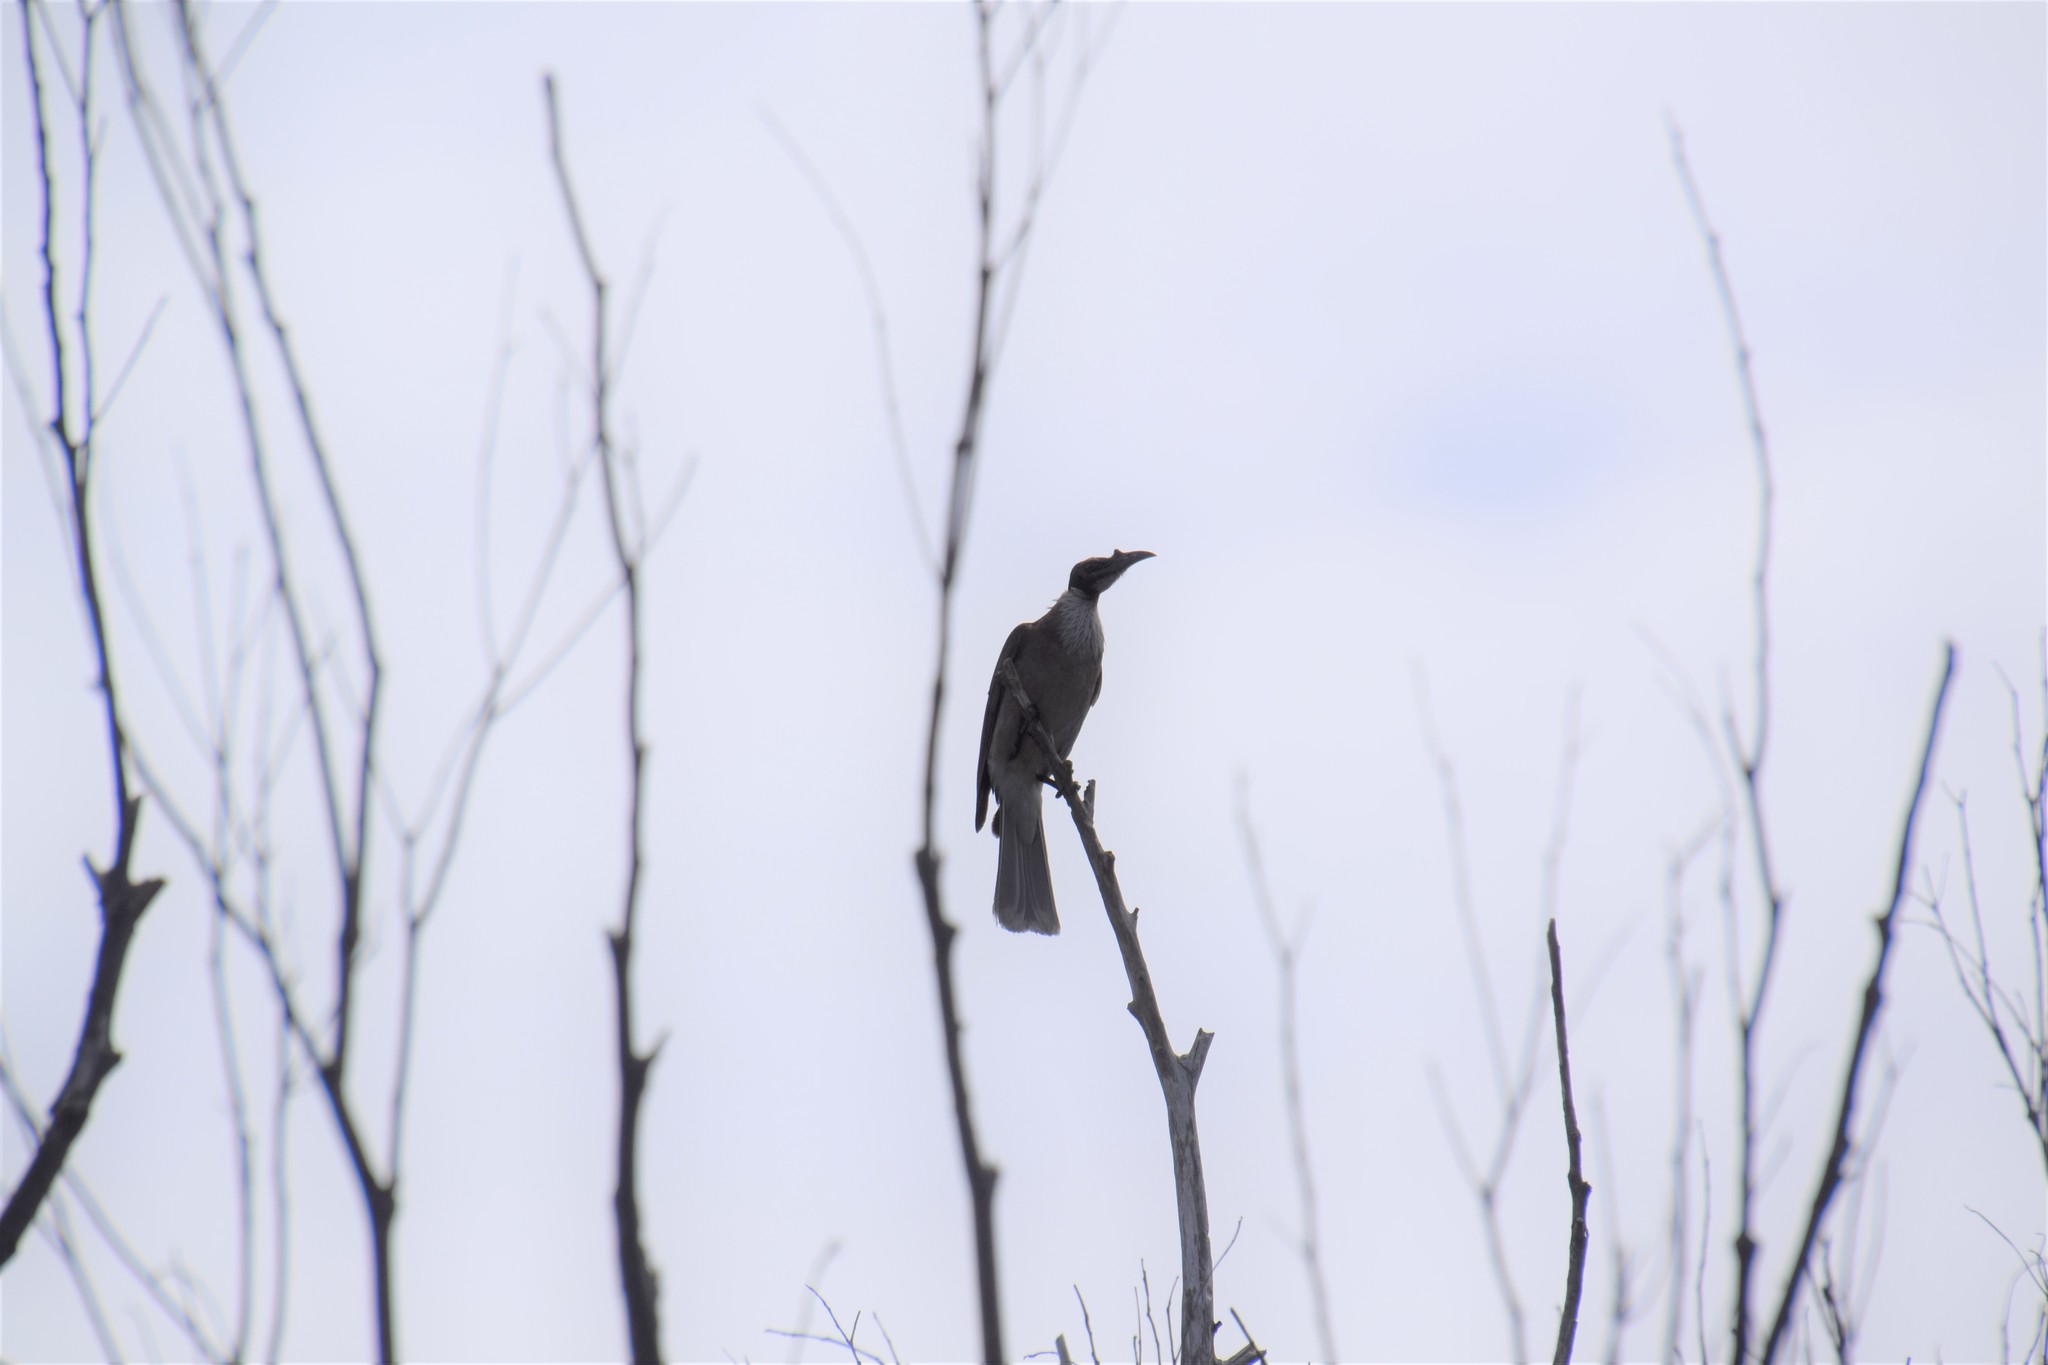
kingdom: Animalia
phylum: Chordata
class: Aves
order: Passeriformes
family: Meliphagidae
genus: Philemon
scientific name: Philemon corniculatus
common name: Noisy friarbird
